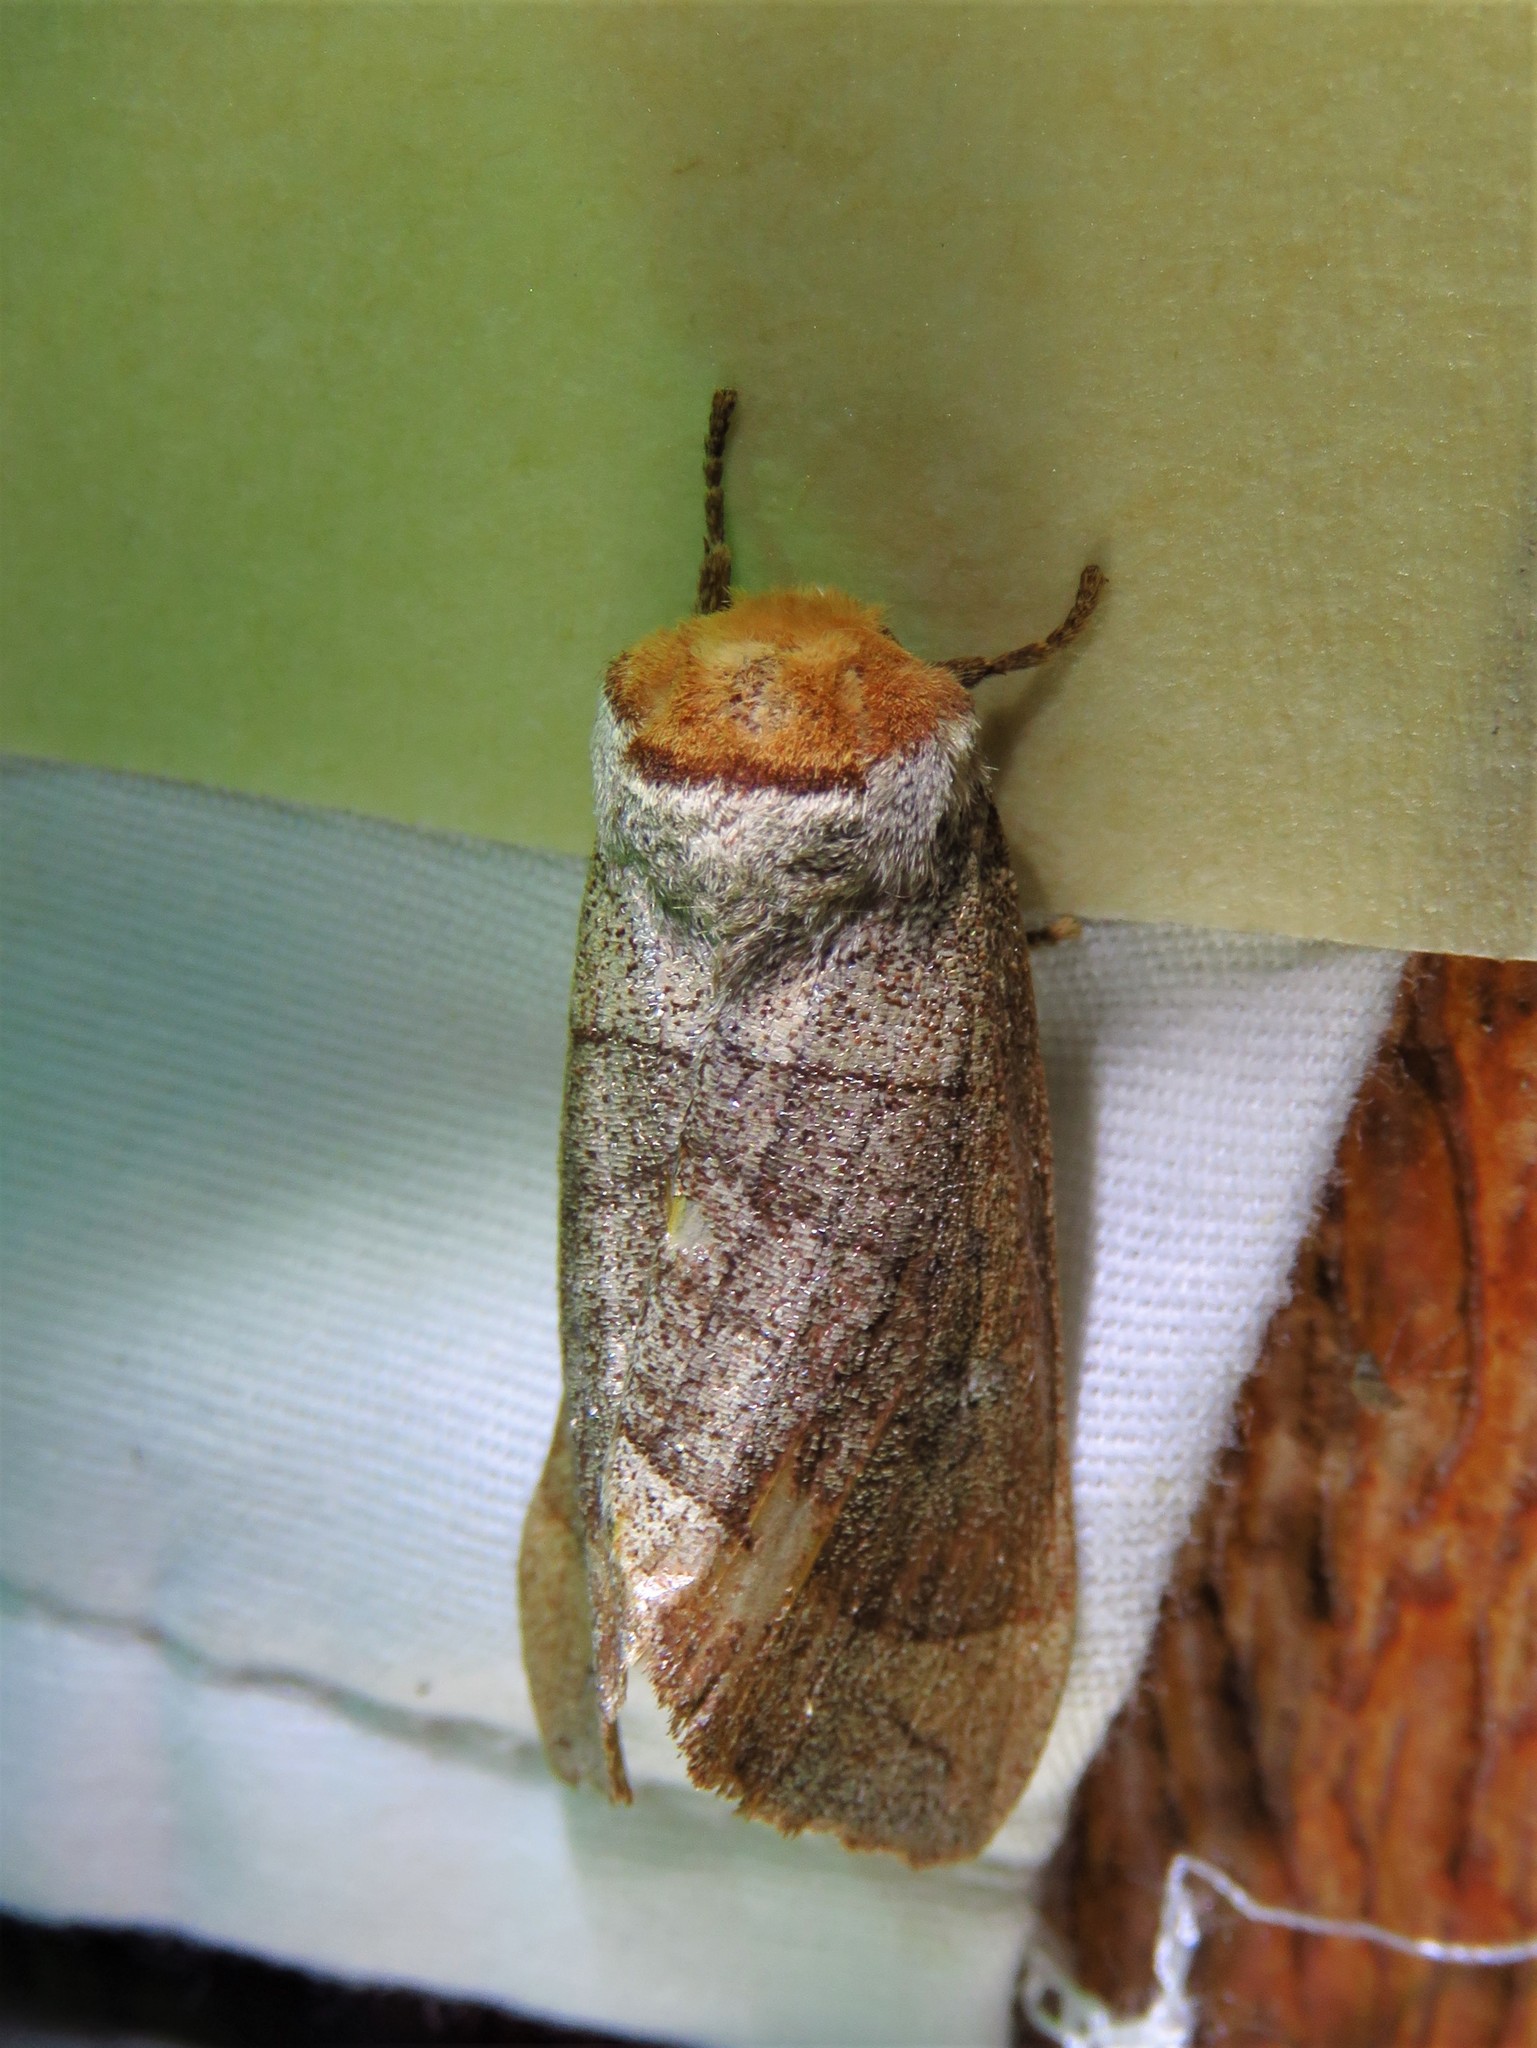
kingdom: Animalia
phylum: Arthropoda
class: Insecta
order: Lepidoptera
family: Notodontidae
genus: Datana
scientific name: Datana ministra
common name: Yellow-necked caterpillar moth
